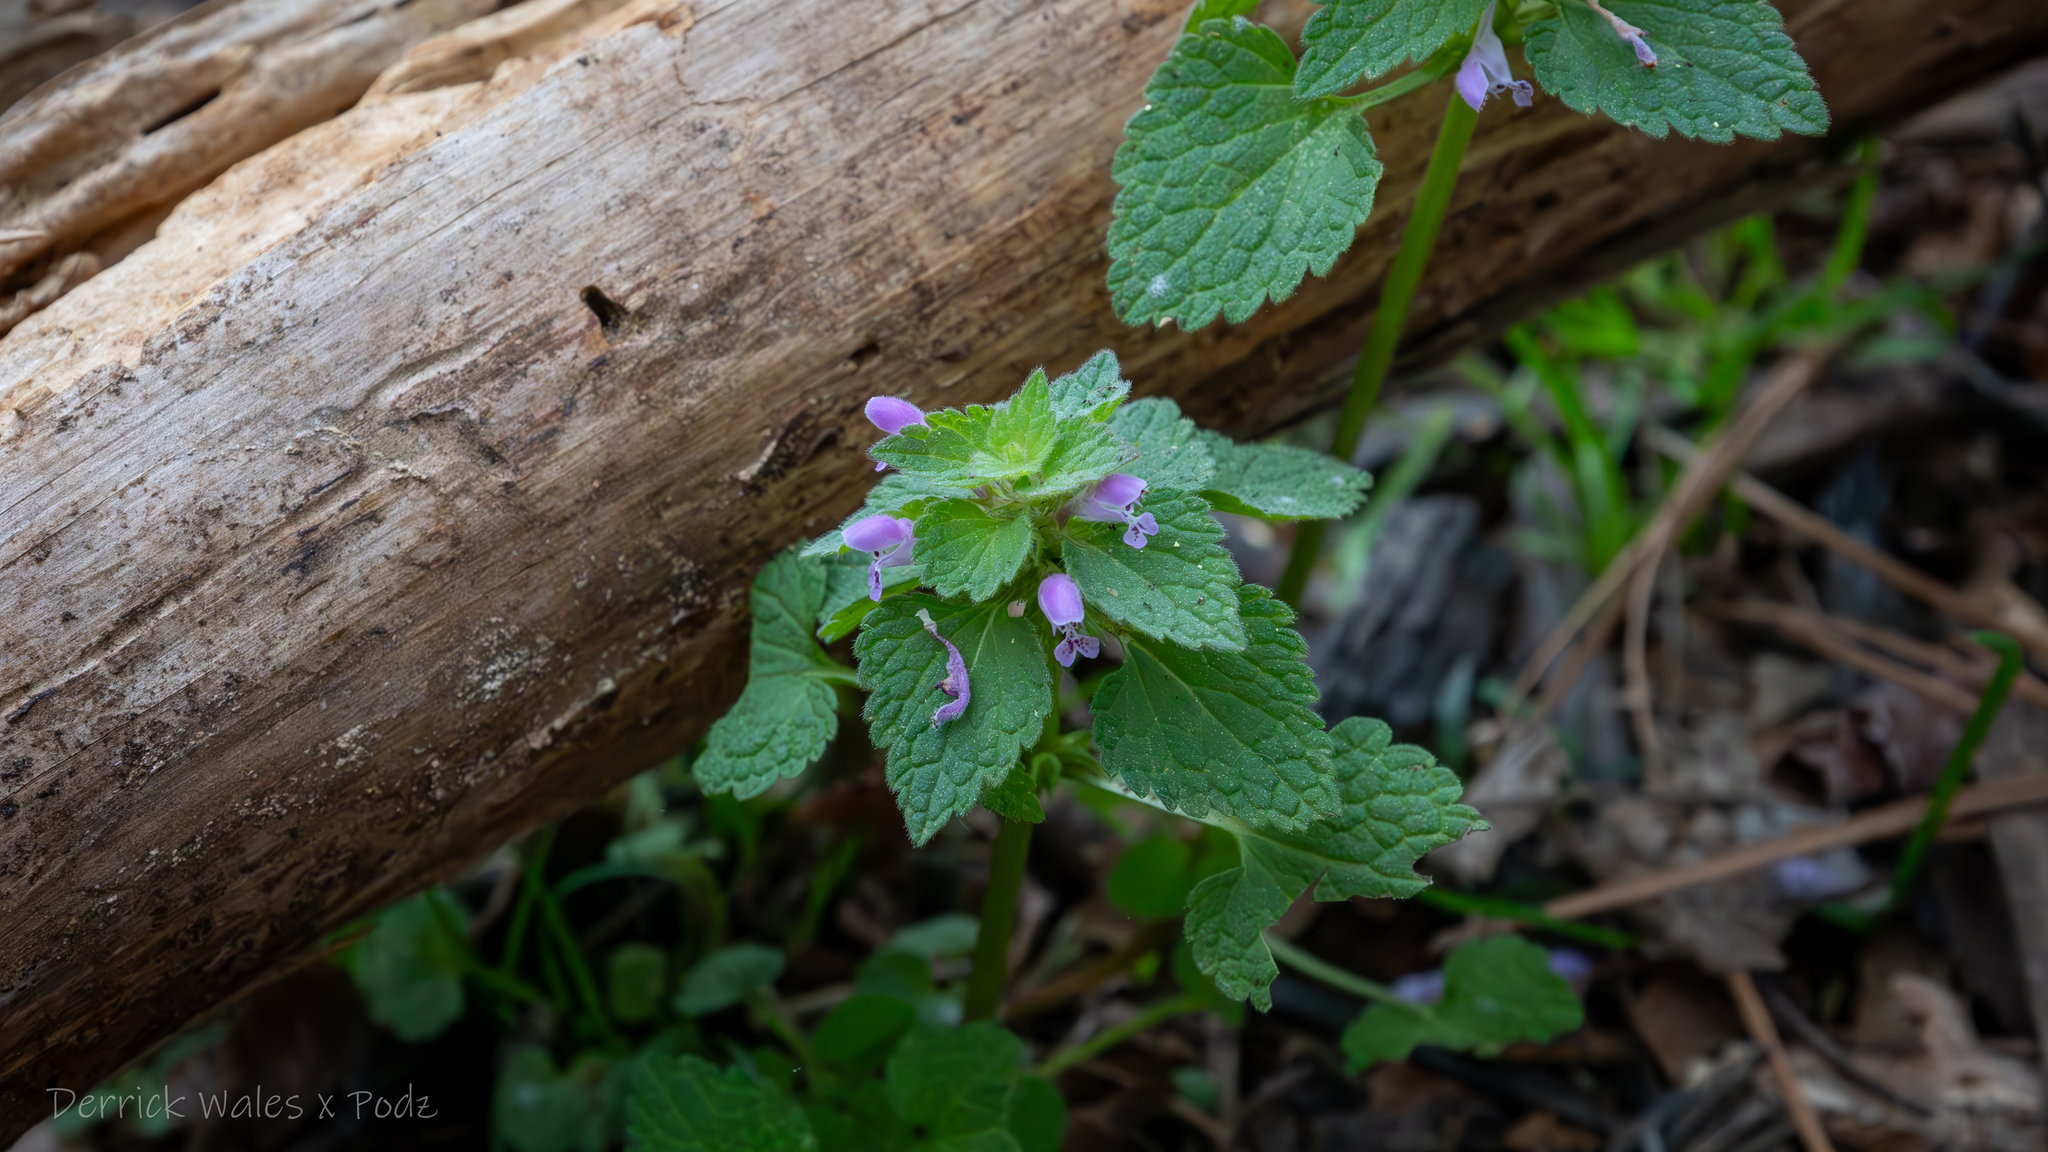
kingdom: Plantae
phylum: Tracheophyta
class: Magnoliopsida
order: Lamiales
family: Lamiaceae
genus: Lamium
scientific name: Lamium purpureum
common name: Red dead-nettle
